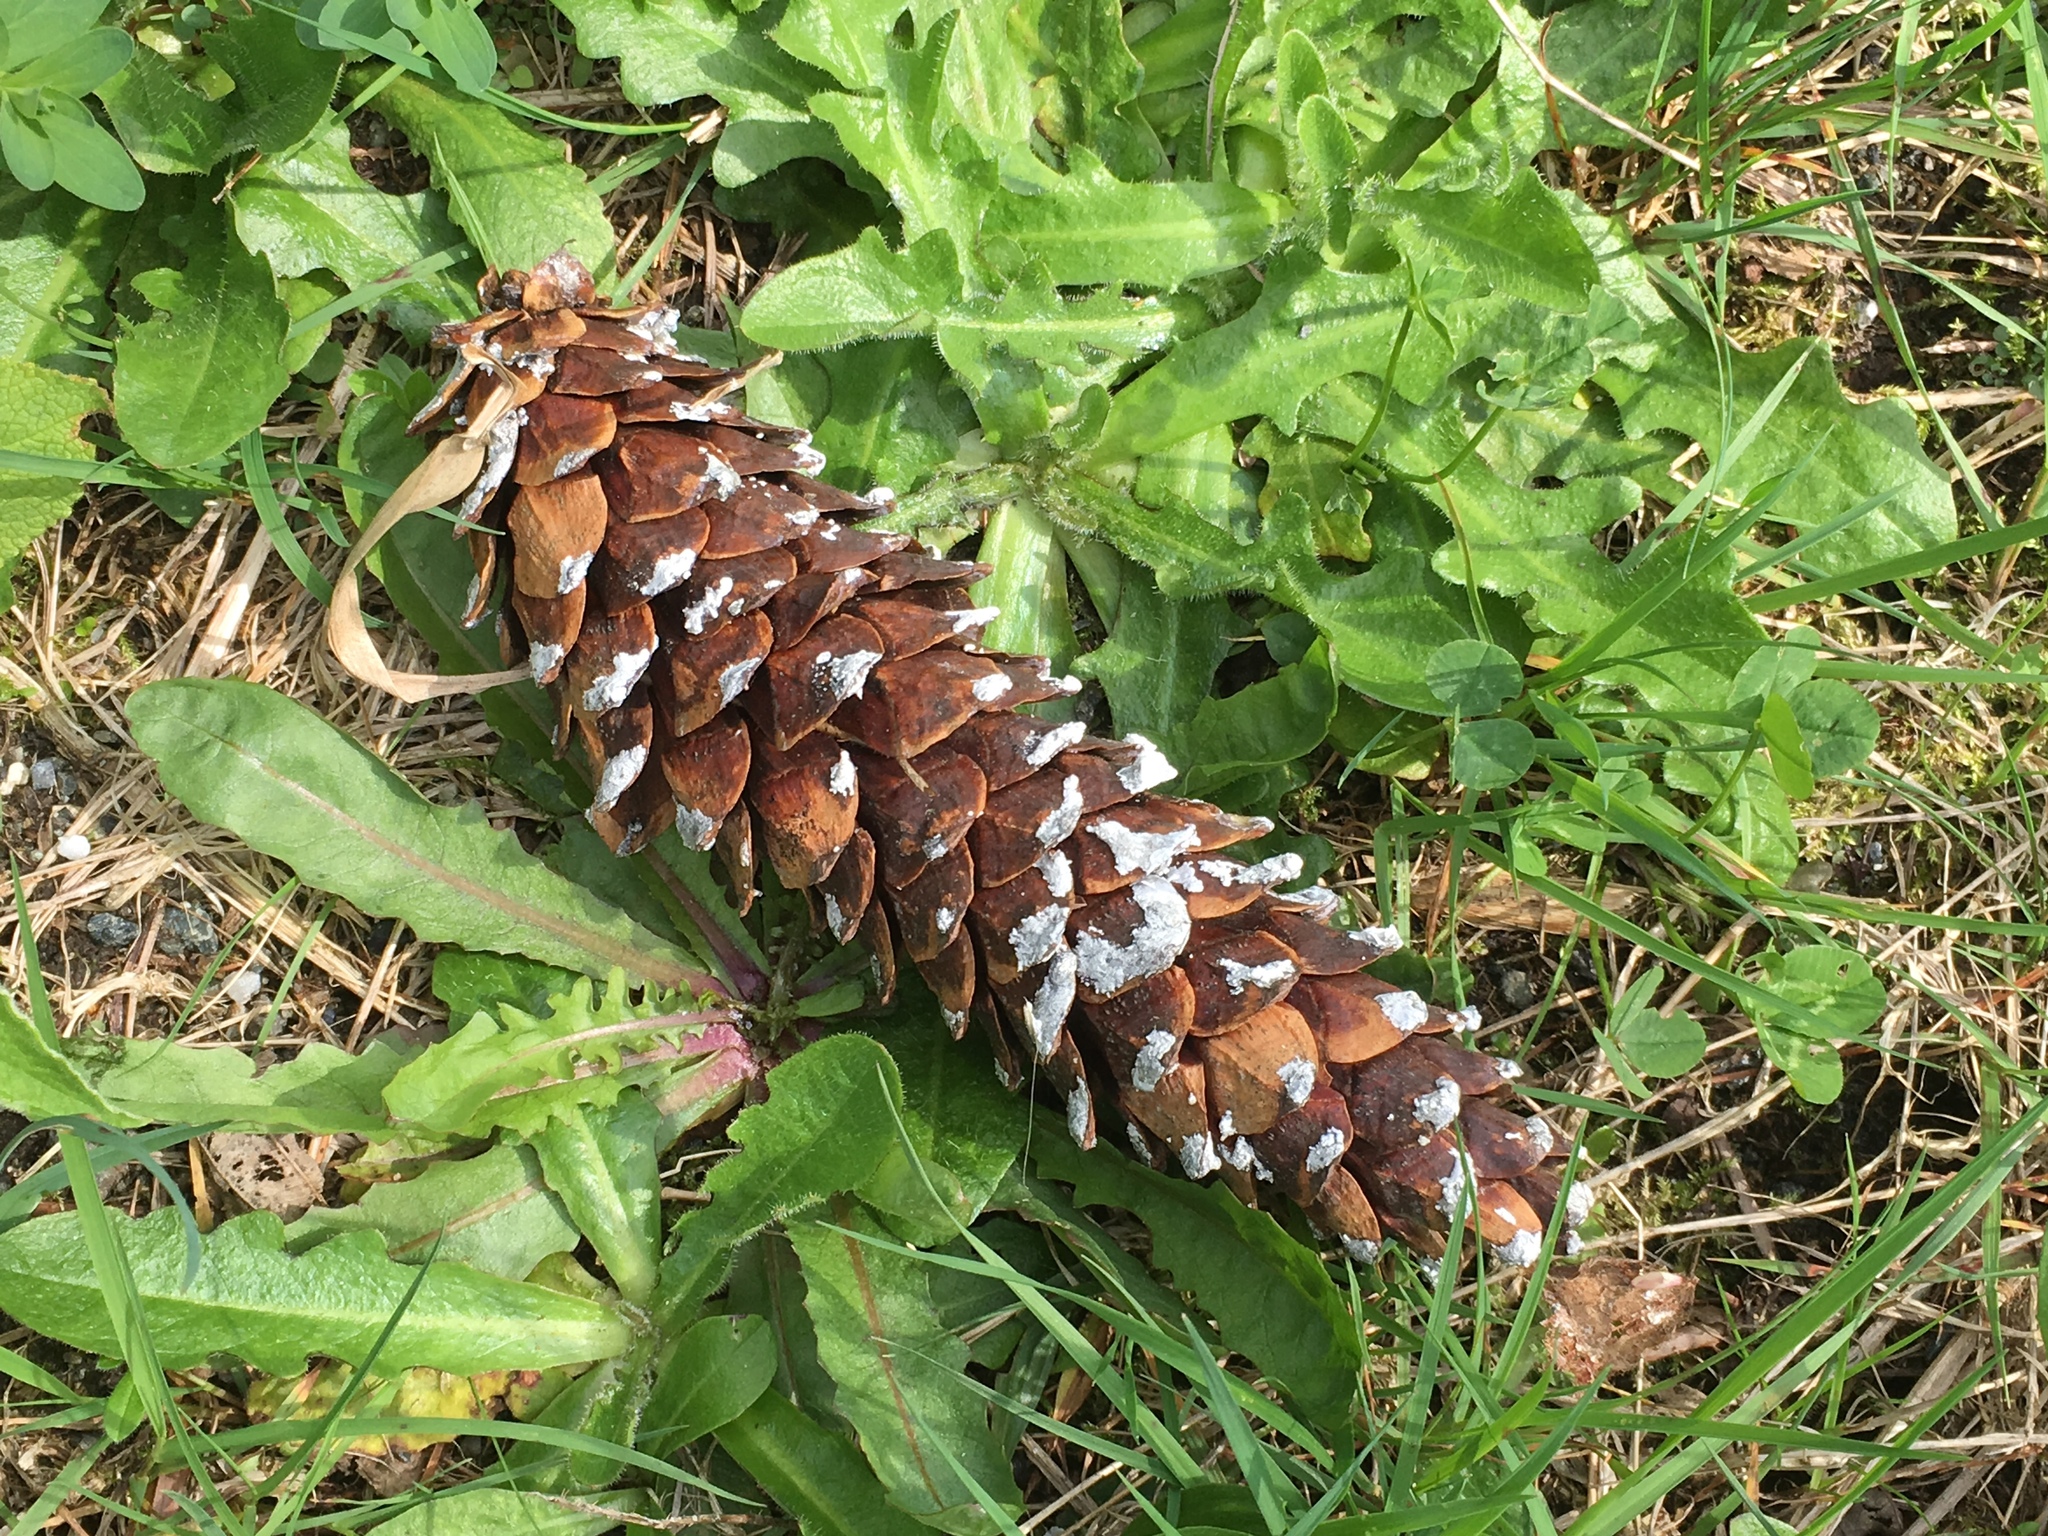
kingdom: Plantae
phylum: Tracheophyta
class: Pinopsida
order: Pinales
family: Pinaceae
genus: Pinus
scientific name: Pinus monticola
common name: Western white pine
